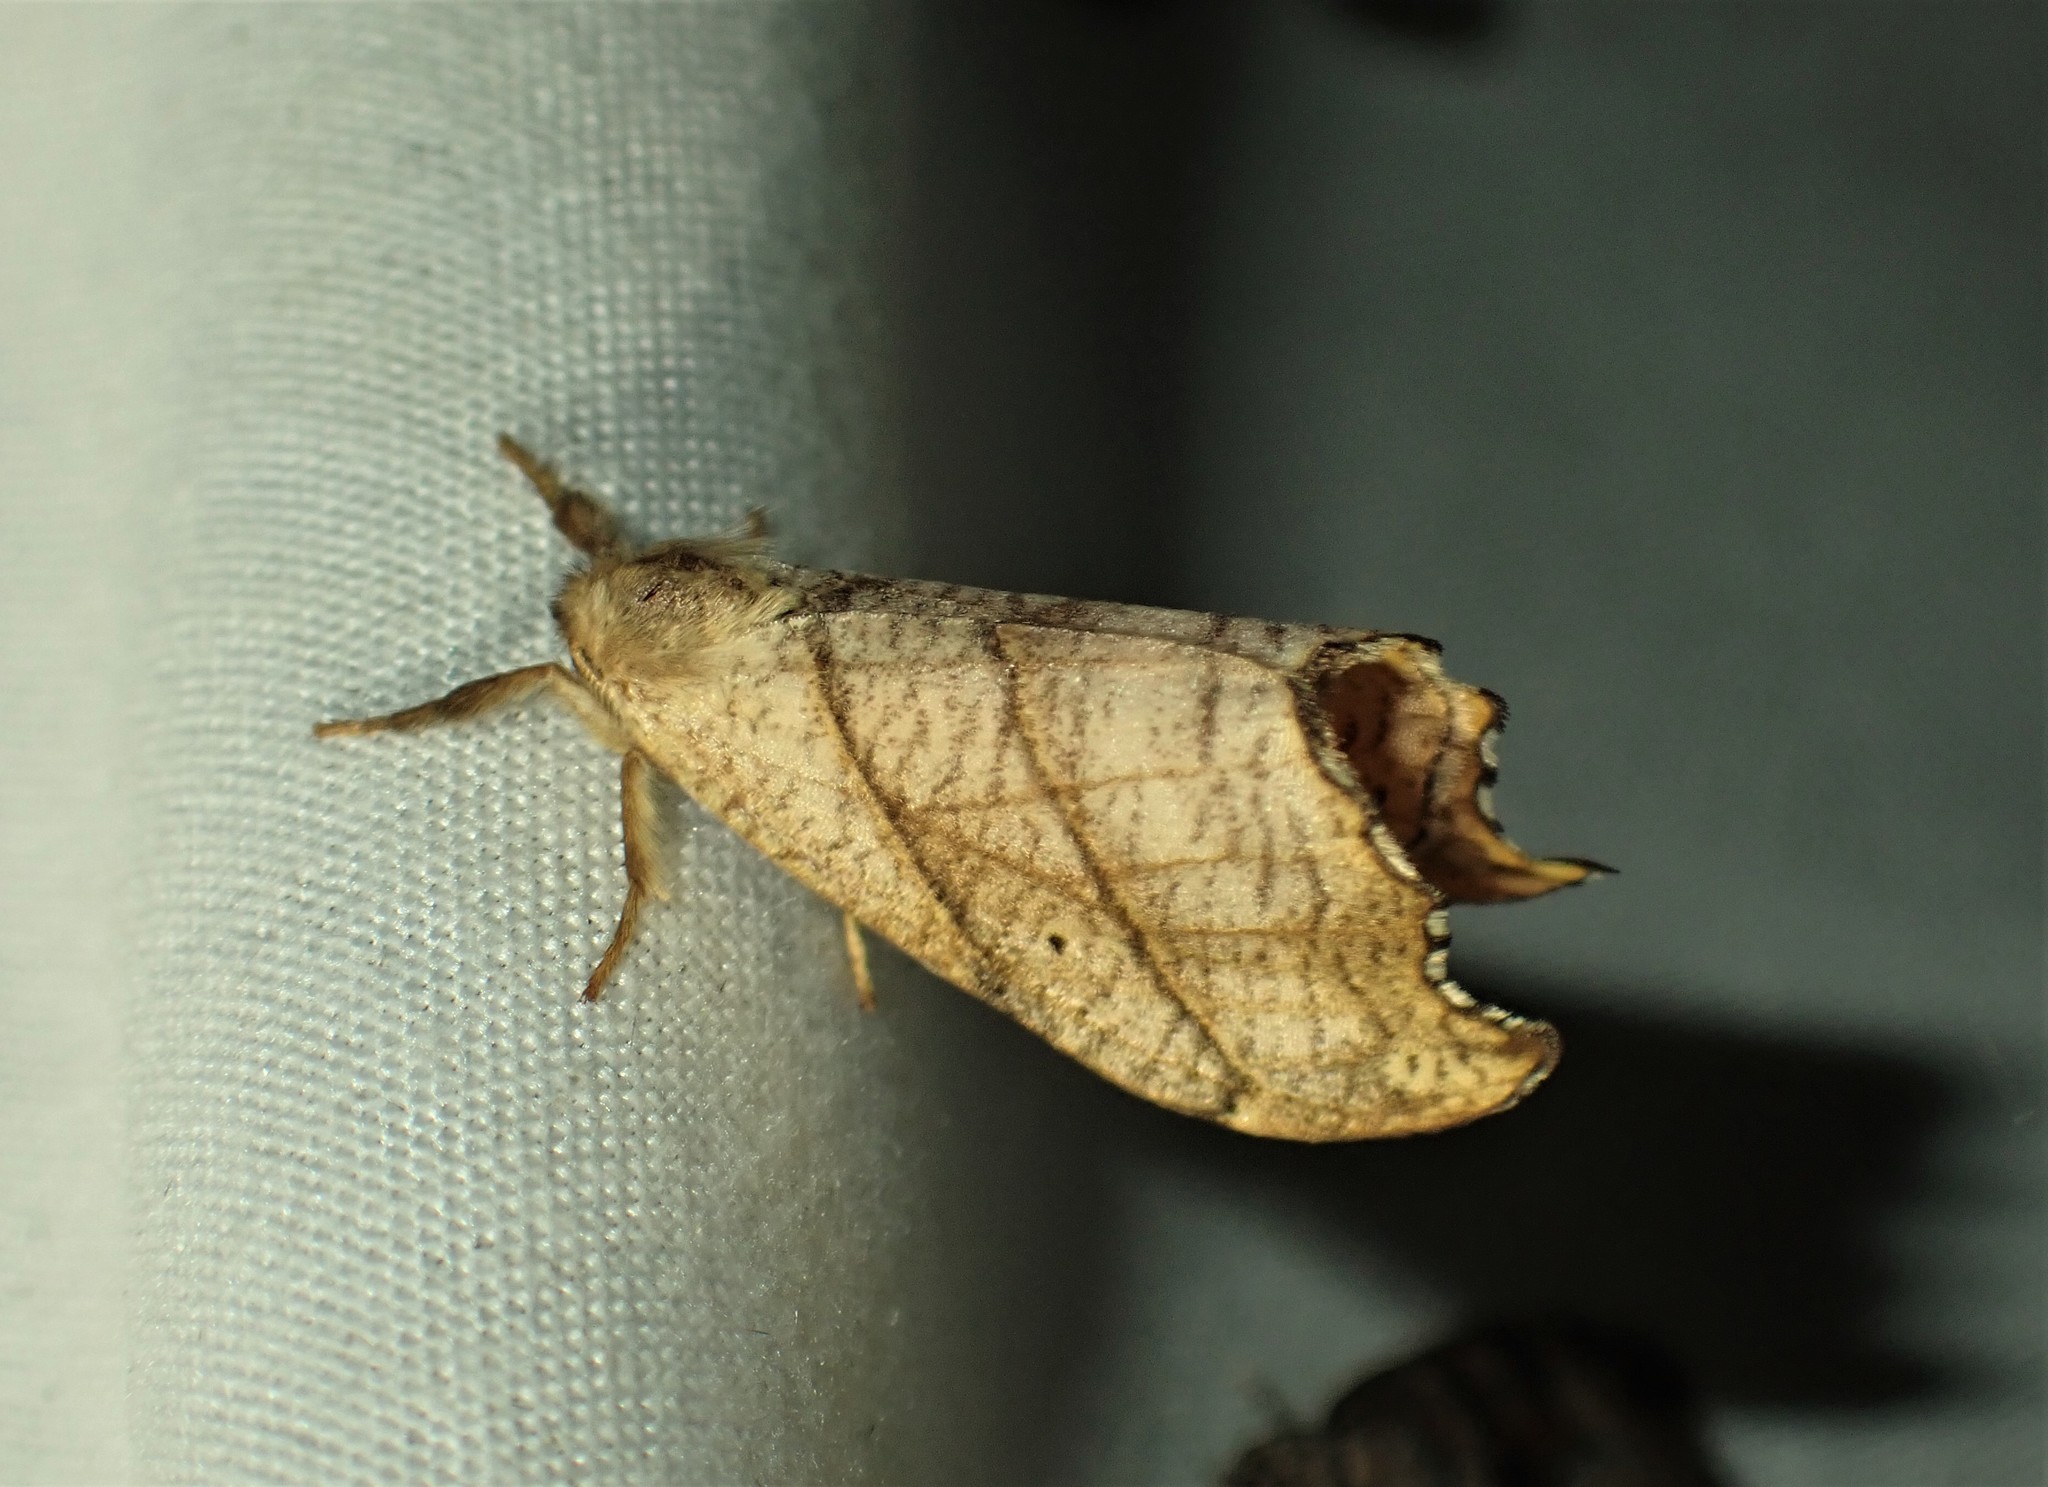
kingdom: Animalia
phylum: Arthropoda
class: Insecta
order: Lepidoptera
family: Drepanidae
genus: Falcaria
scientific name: Falcaria bilineata
